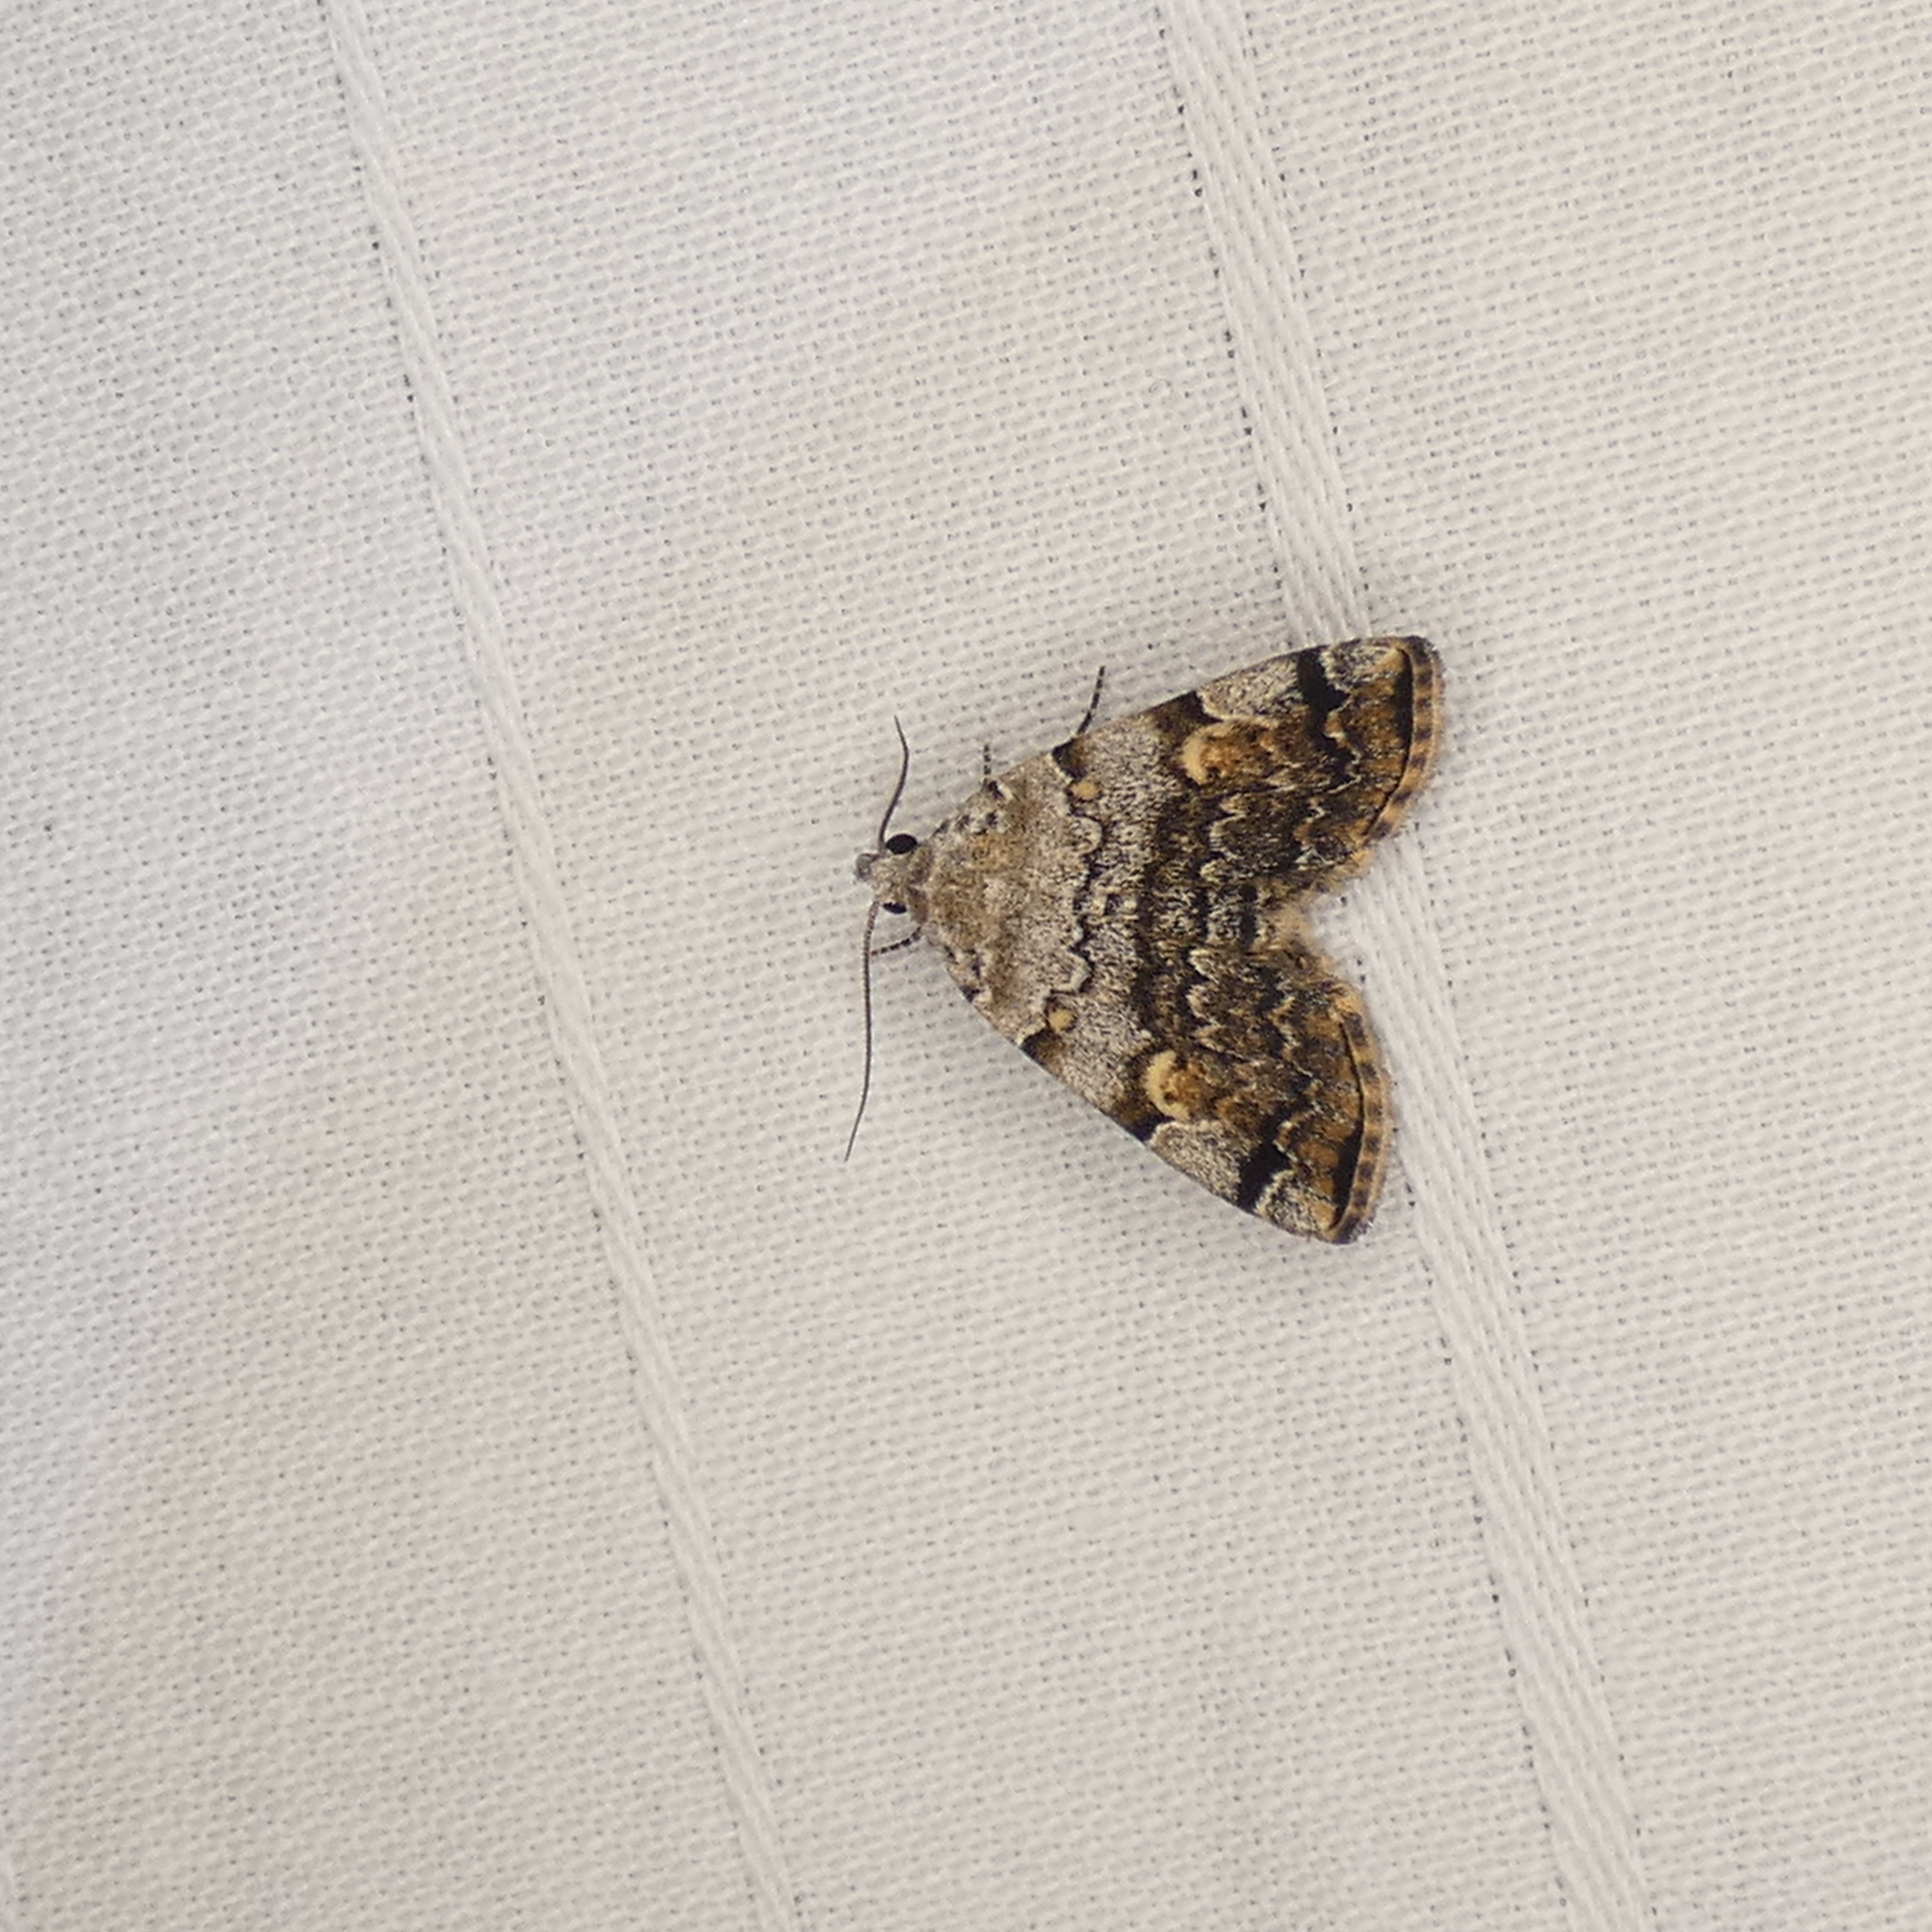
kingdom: Animalia
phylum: Arthropoda
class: Insecta
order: Lepidoptera
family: Erebidae
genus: Idia
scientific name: Idia americalis
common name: American idia moth
